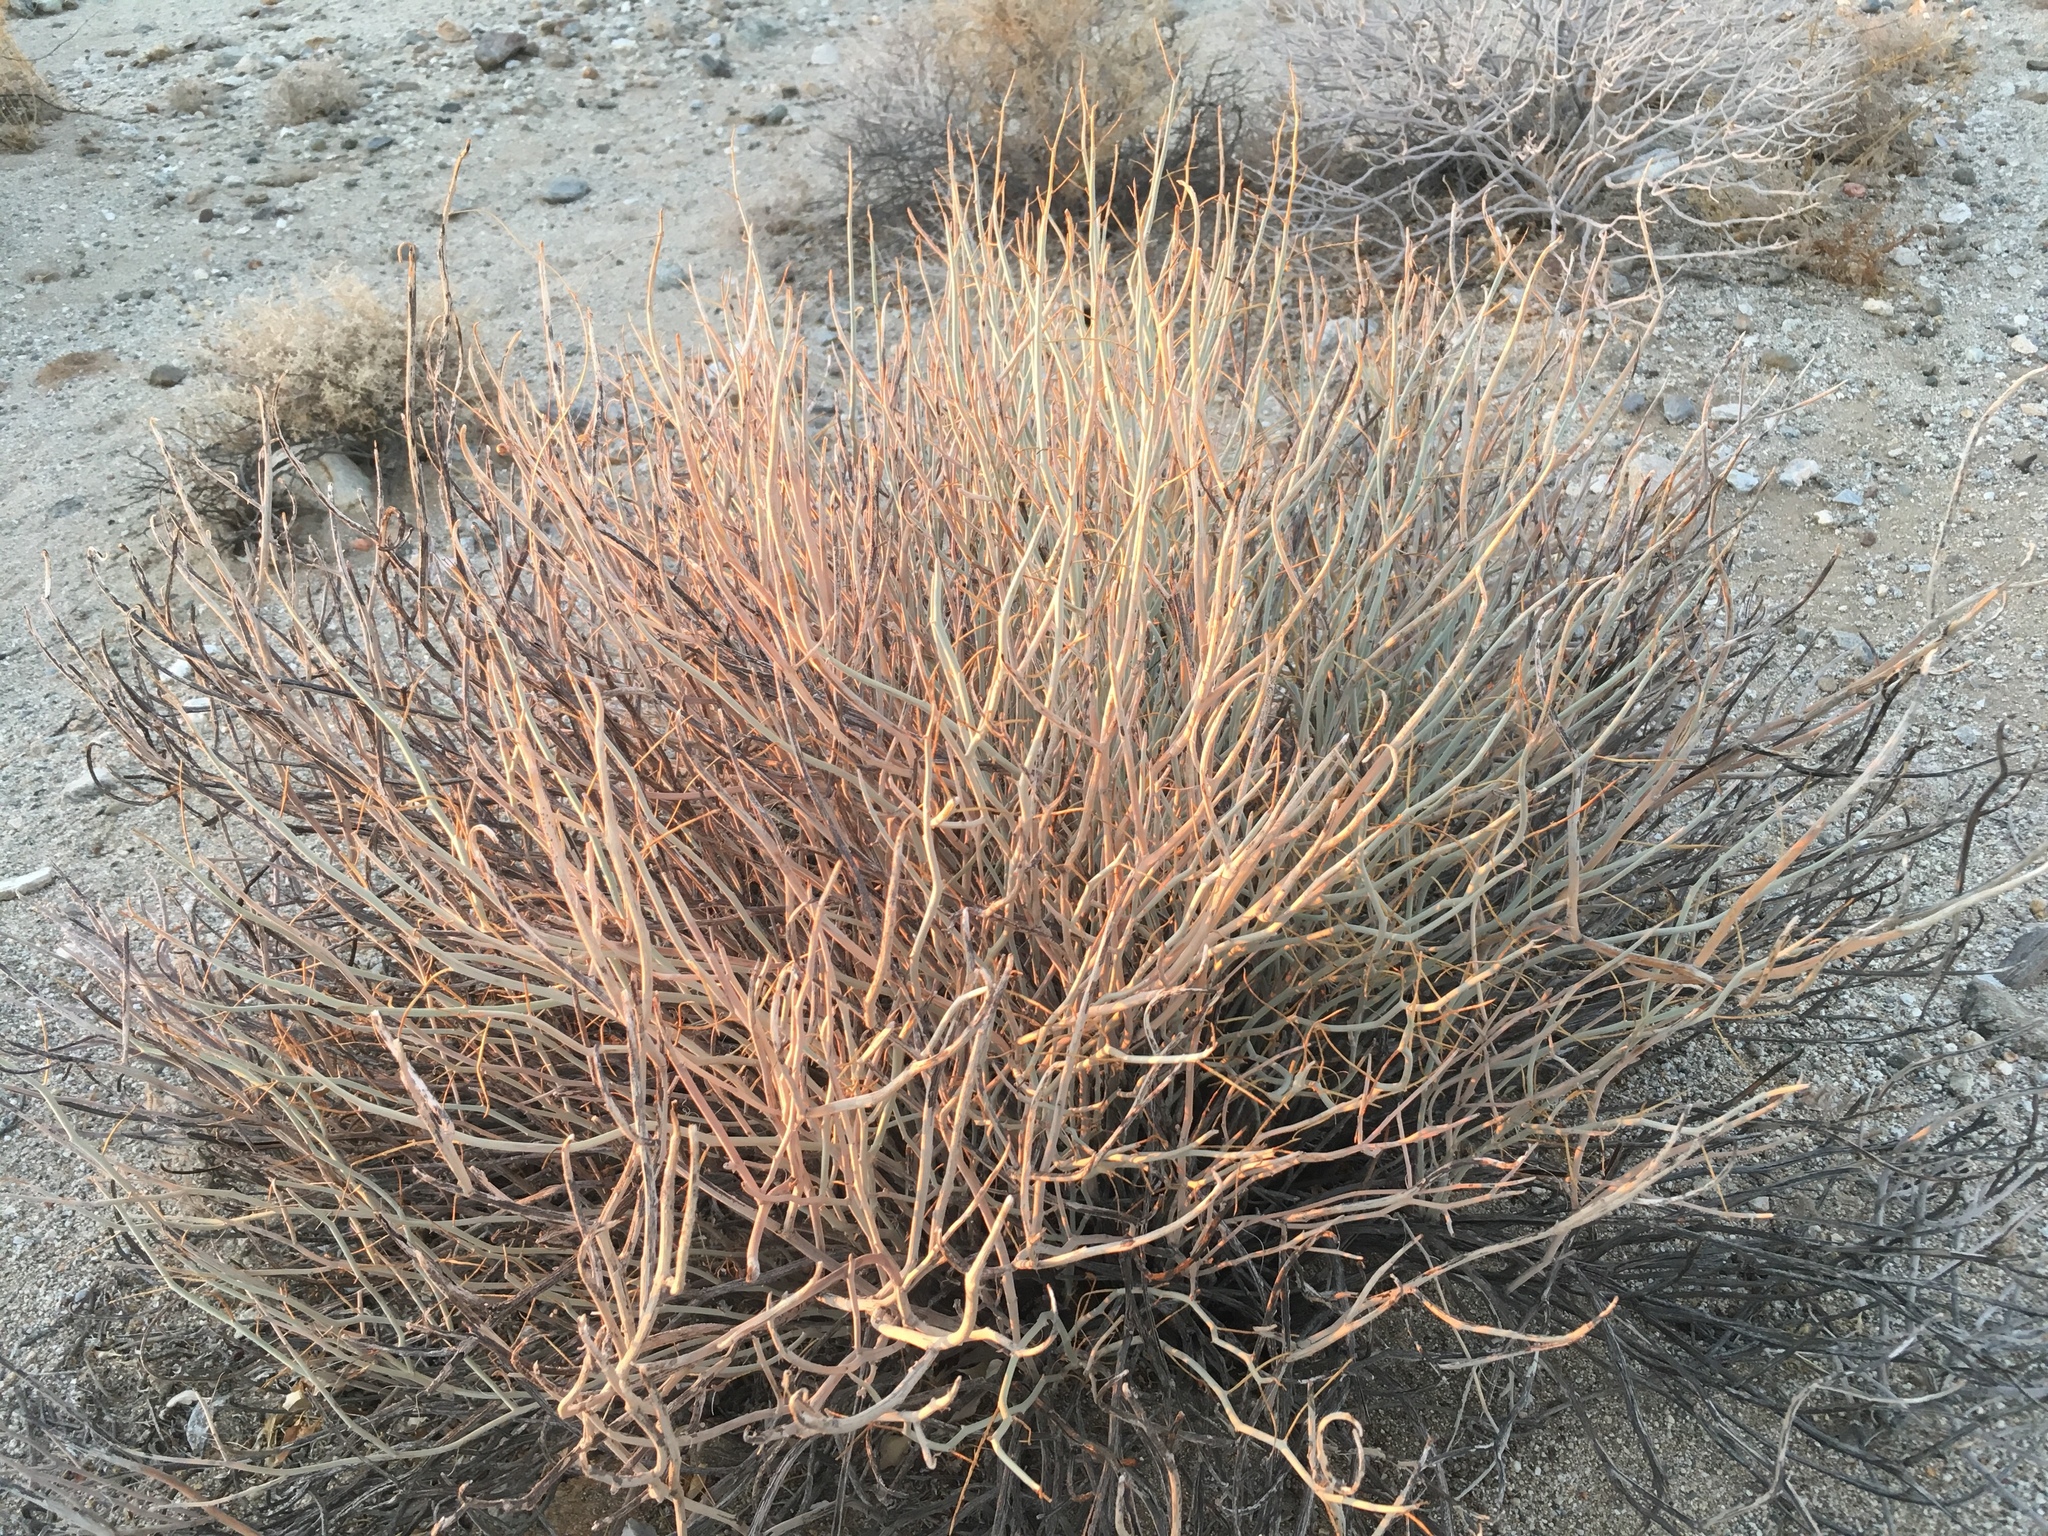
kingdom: Plantae
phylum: Tracheophyta
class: Magnoliopsida
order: Fabales
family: Fabaceae
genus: Senna
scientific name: Senna armata
